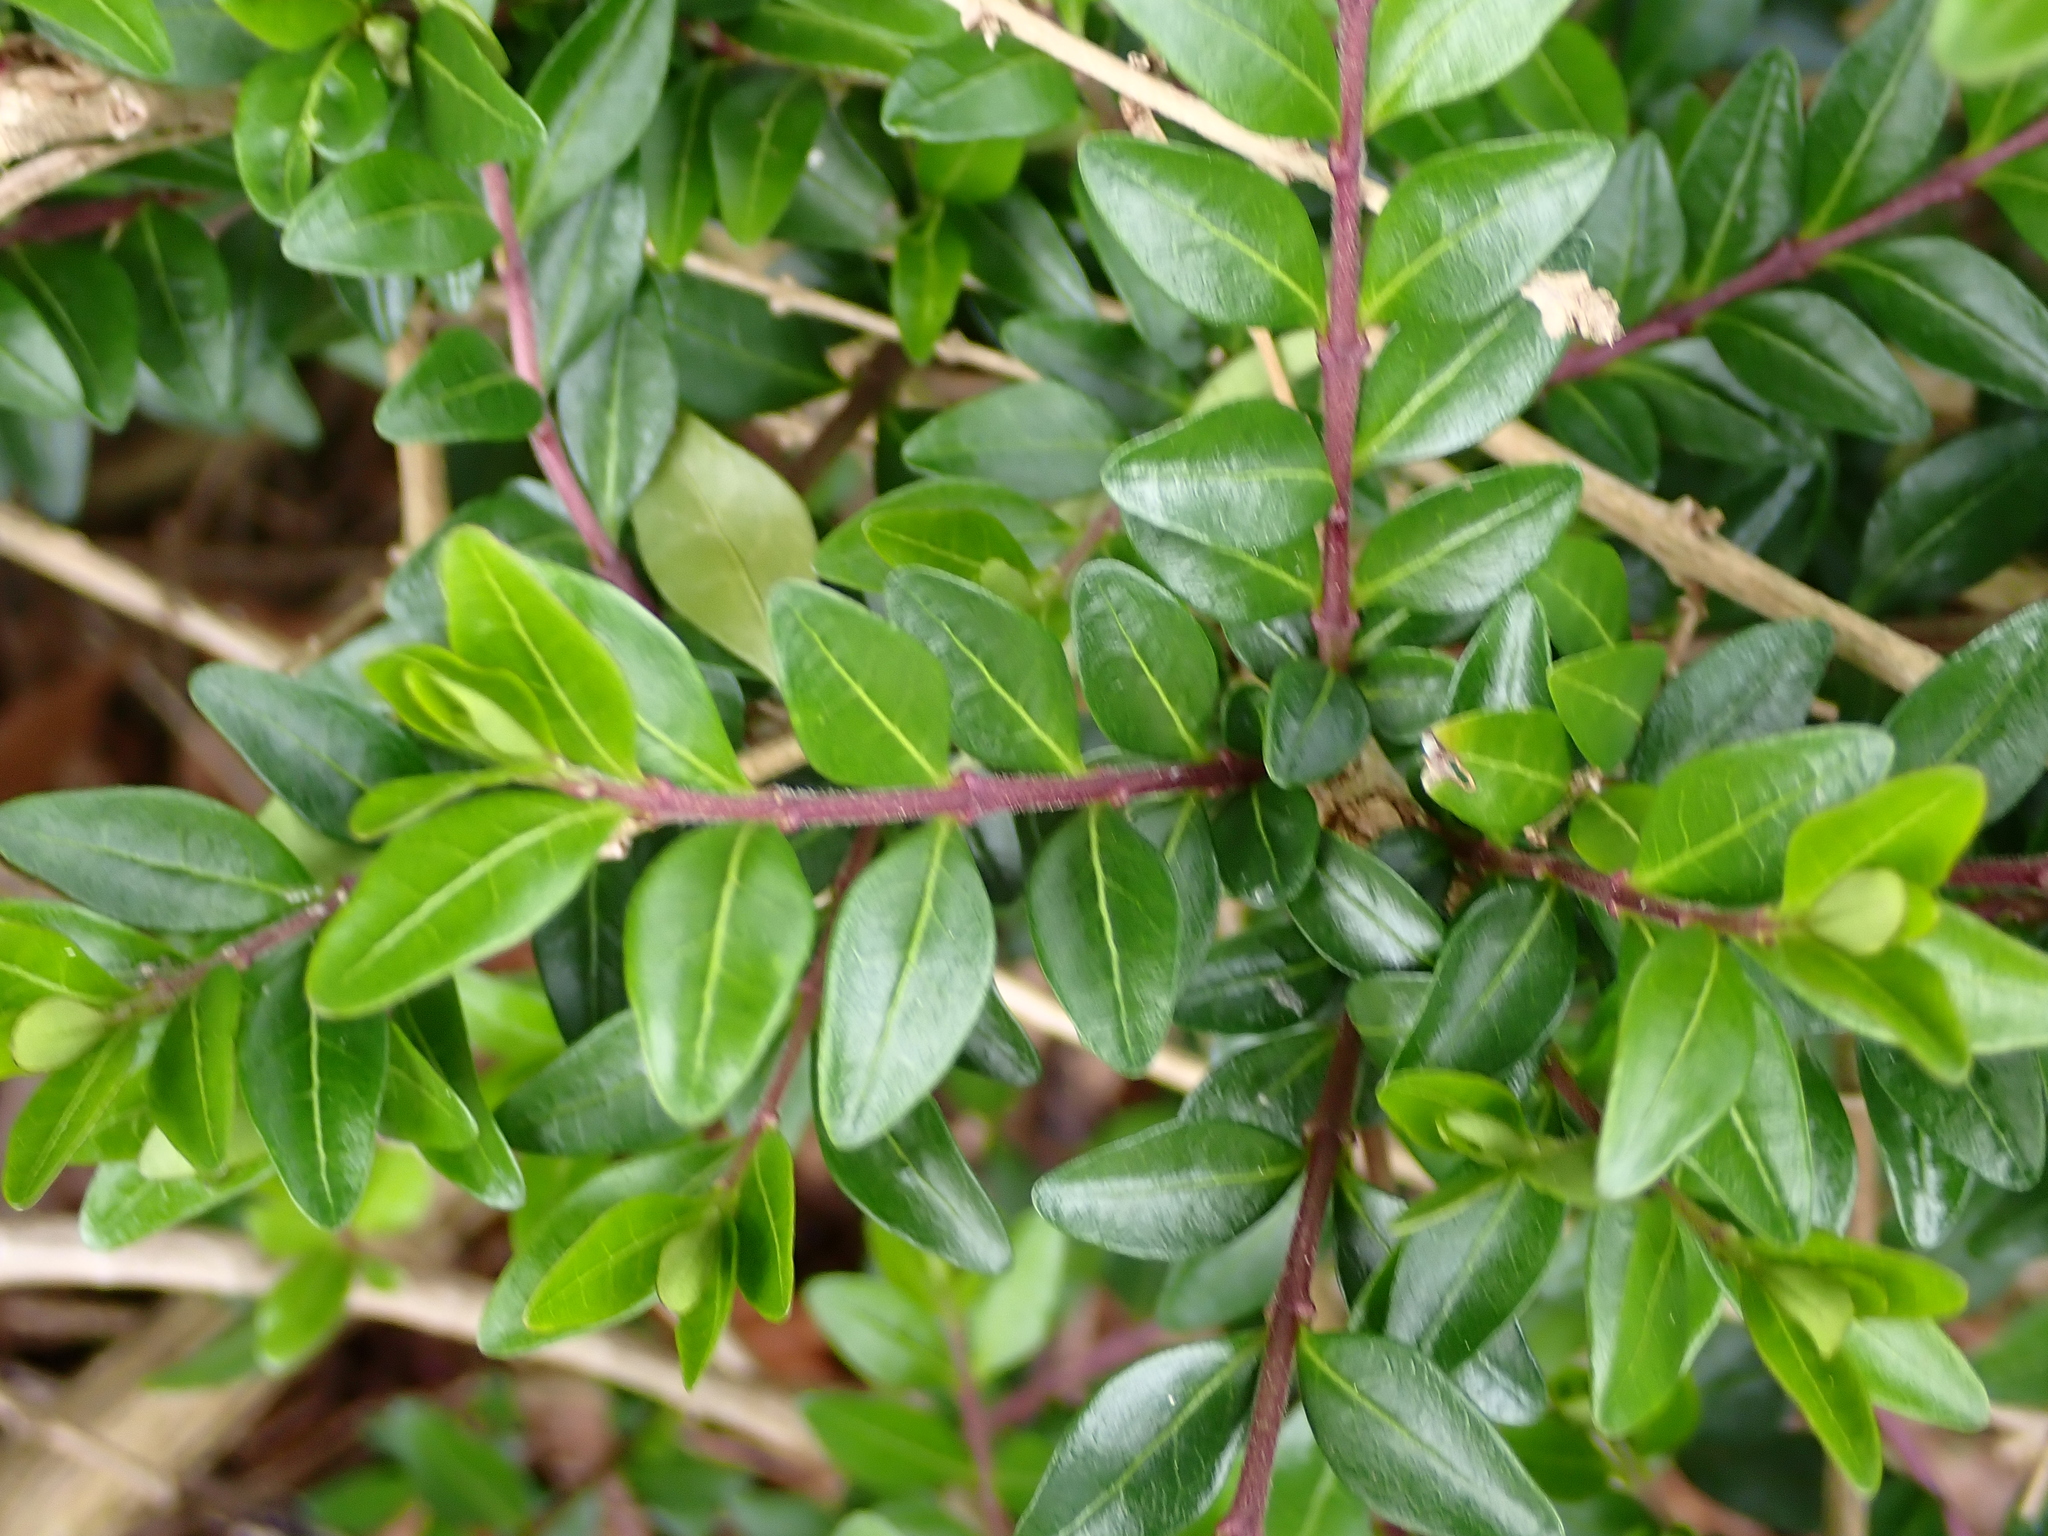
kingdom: Plantae
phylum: Tracheophyta
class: Magnoliopsida
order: Dipsacales
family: Caprifoliaceae
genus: Lonicera
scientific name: Lonicera ligustrina
